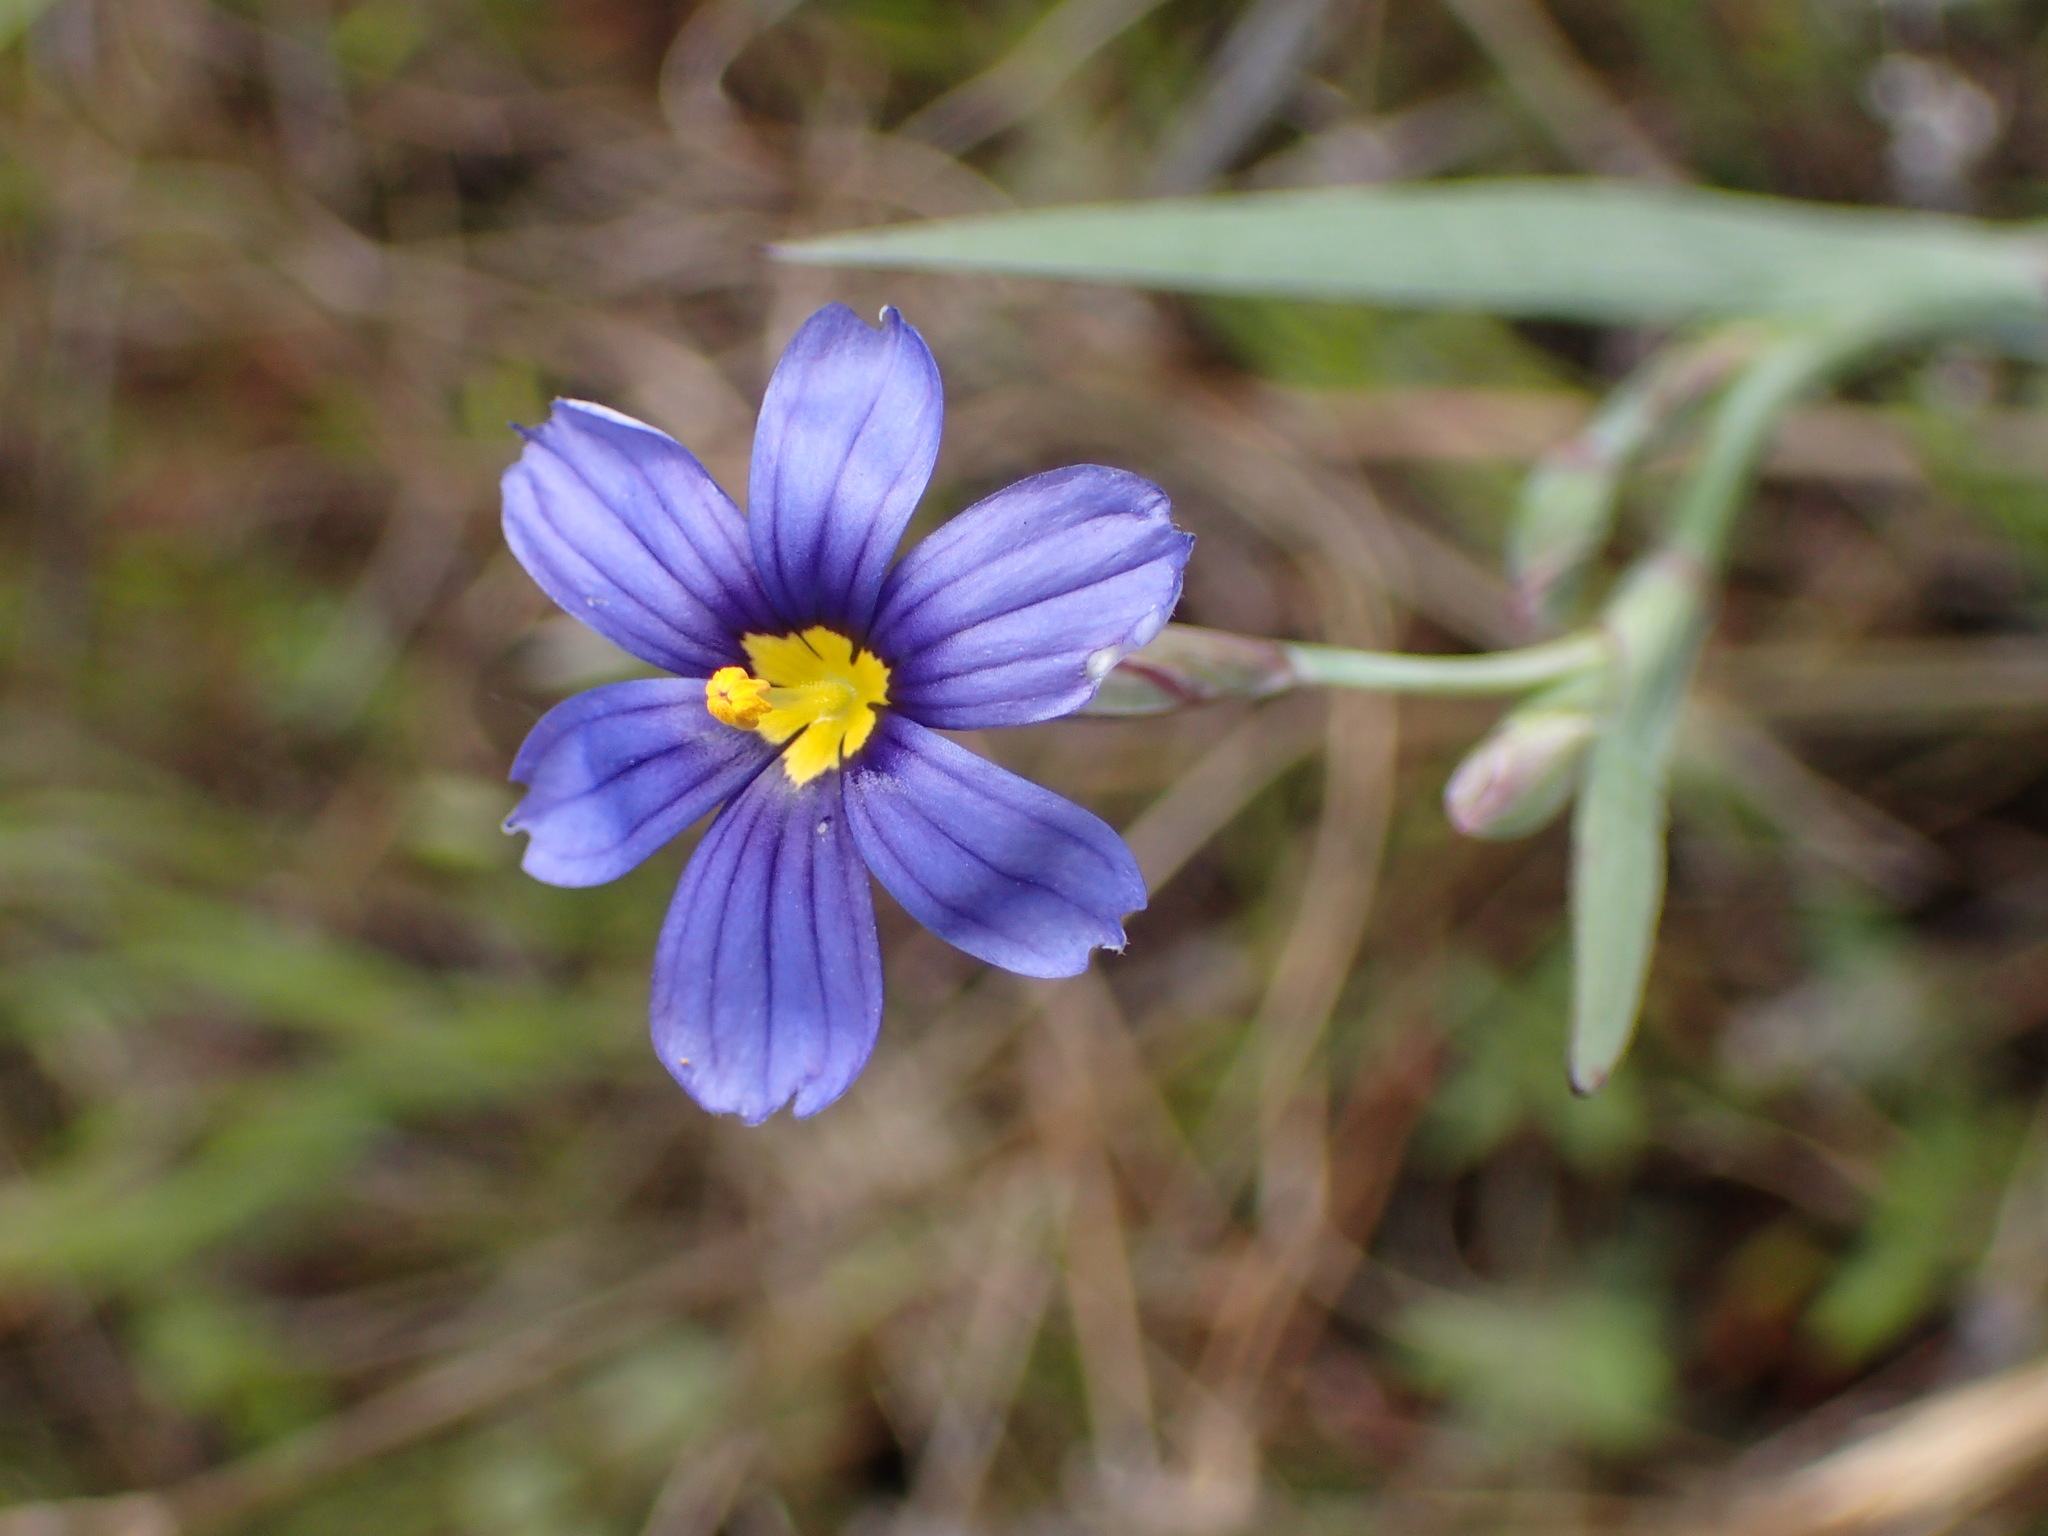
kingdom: Plantae
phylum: Tracheophyta
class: Liliopsida
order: Asparagales
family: Iridaceae
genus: Sisyrinchium
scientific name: Sisyrinchium bellum
